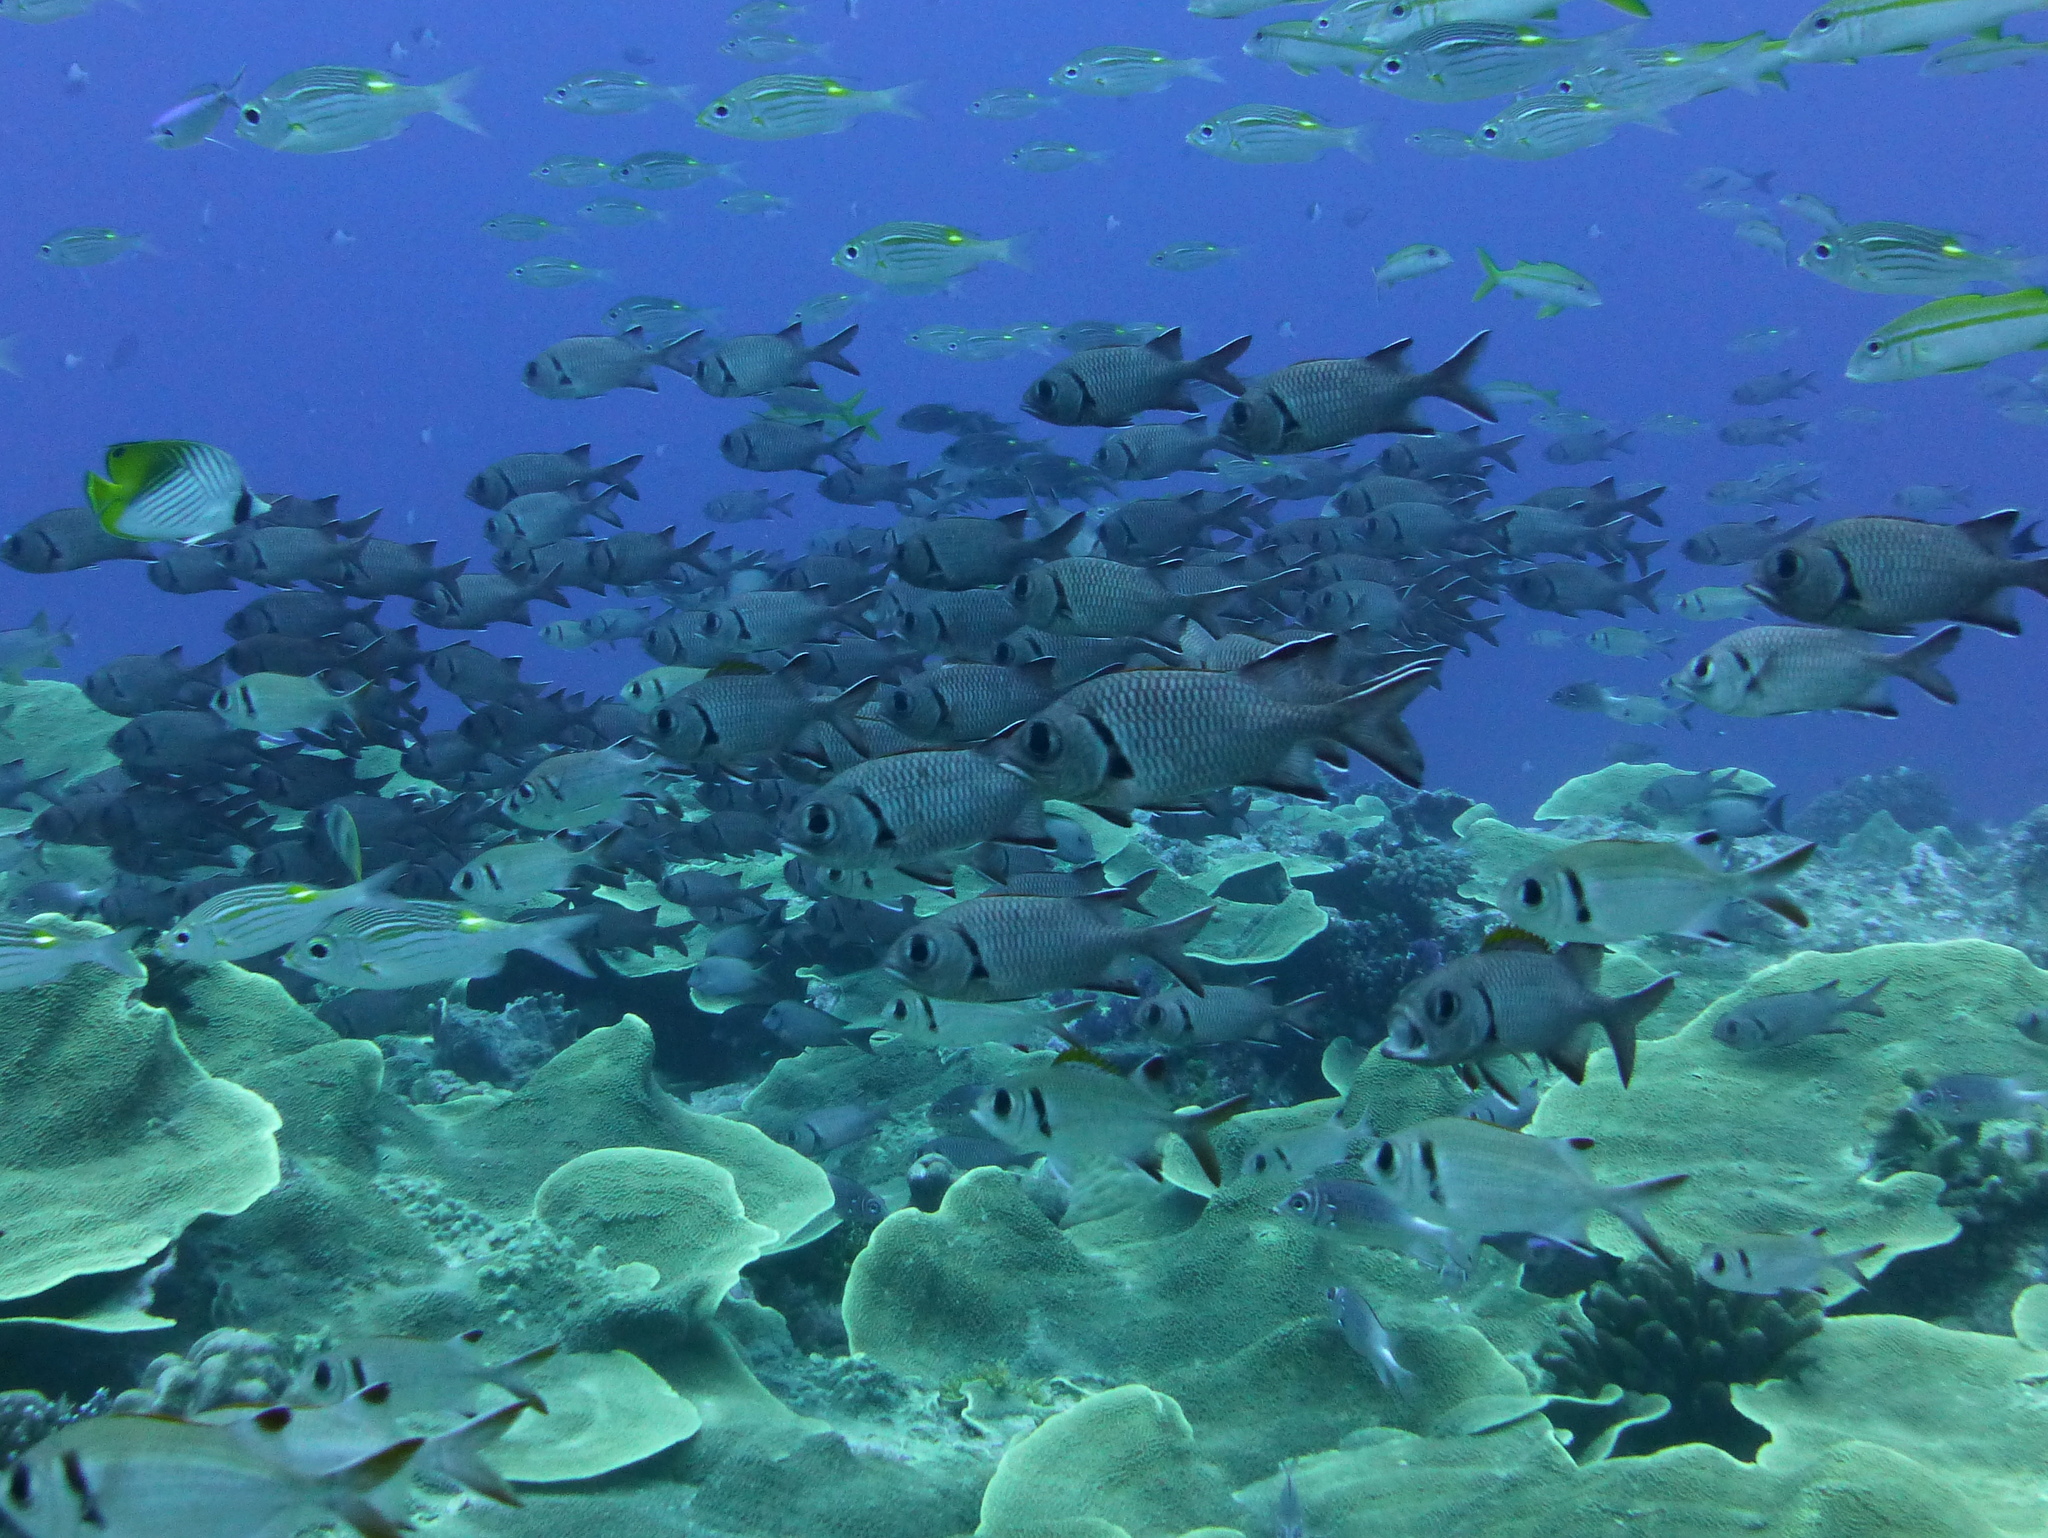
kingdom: Animalia
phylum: Chordata
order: Beryciformes
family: Holocentridae
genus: Myripristis
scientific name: Myripristis kuntee
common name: Epaulette soldierfish
